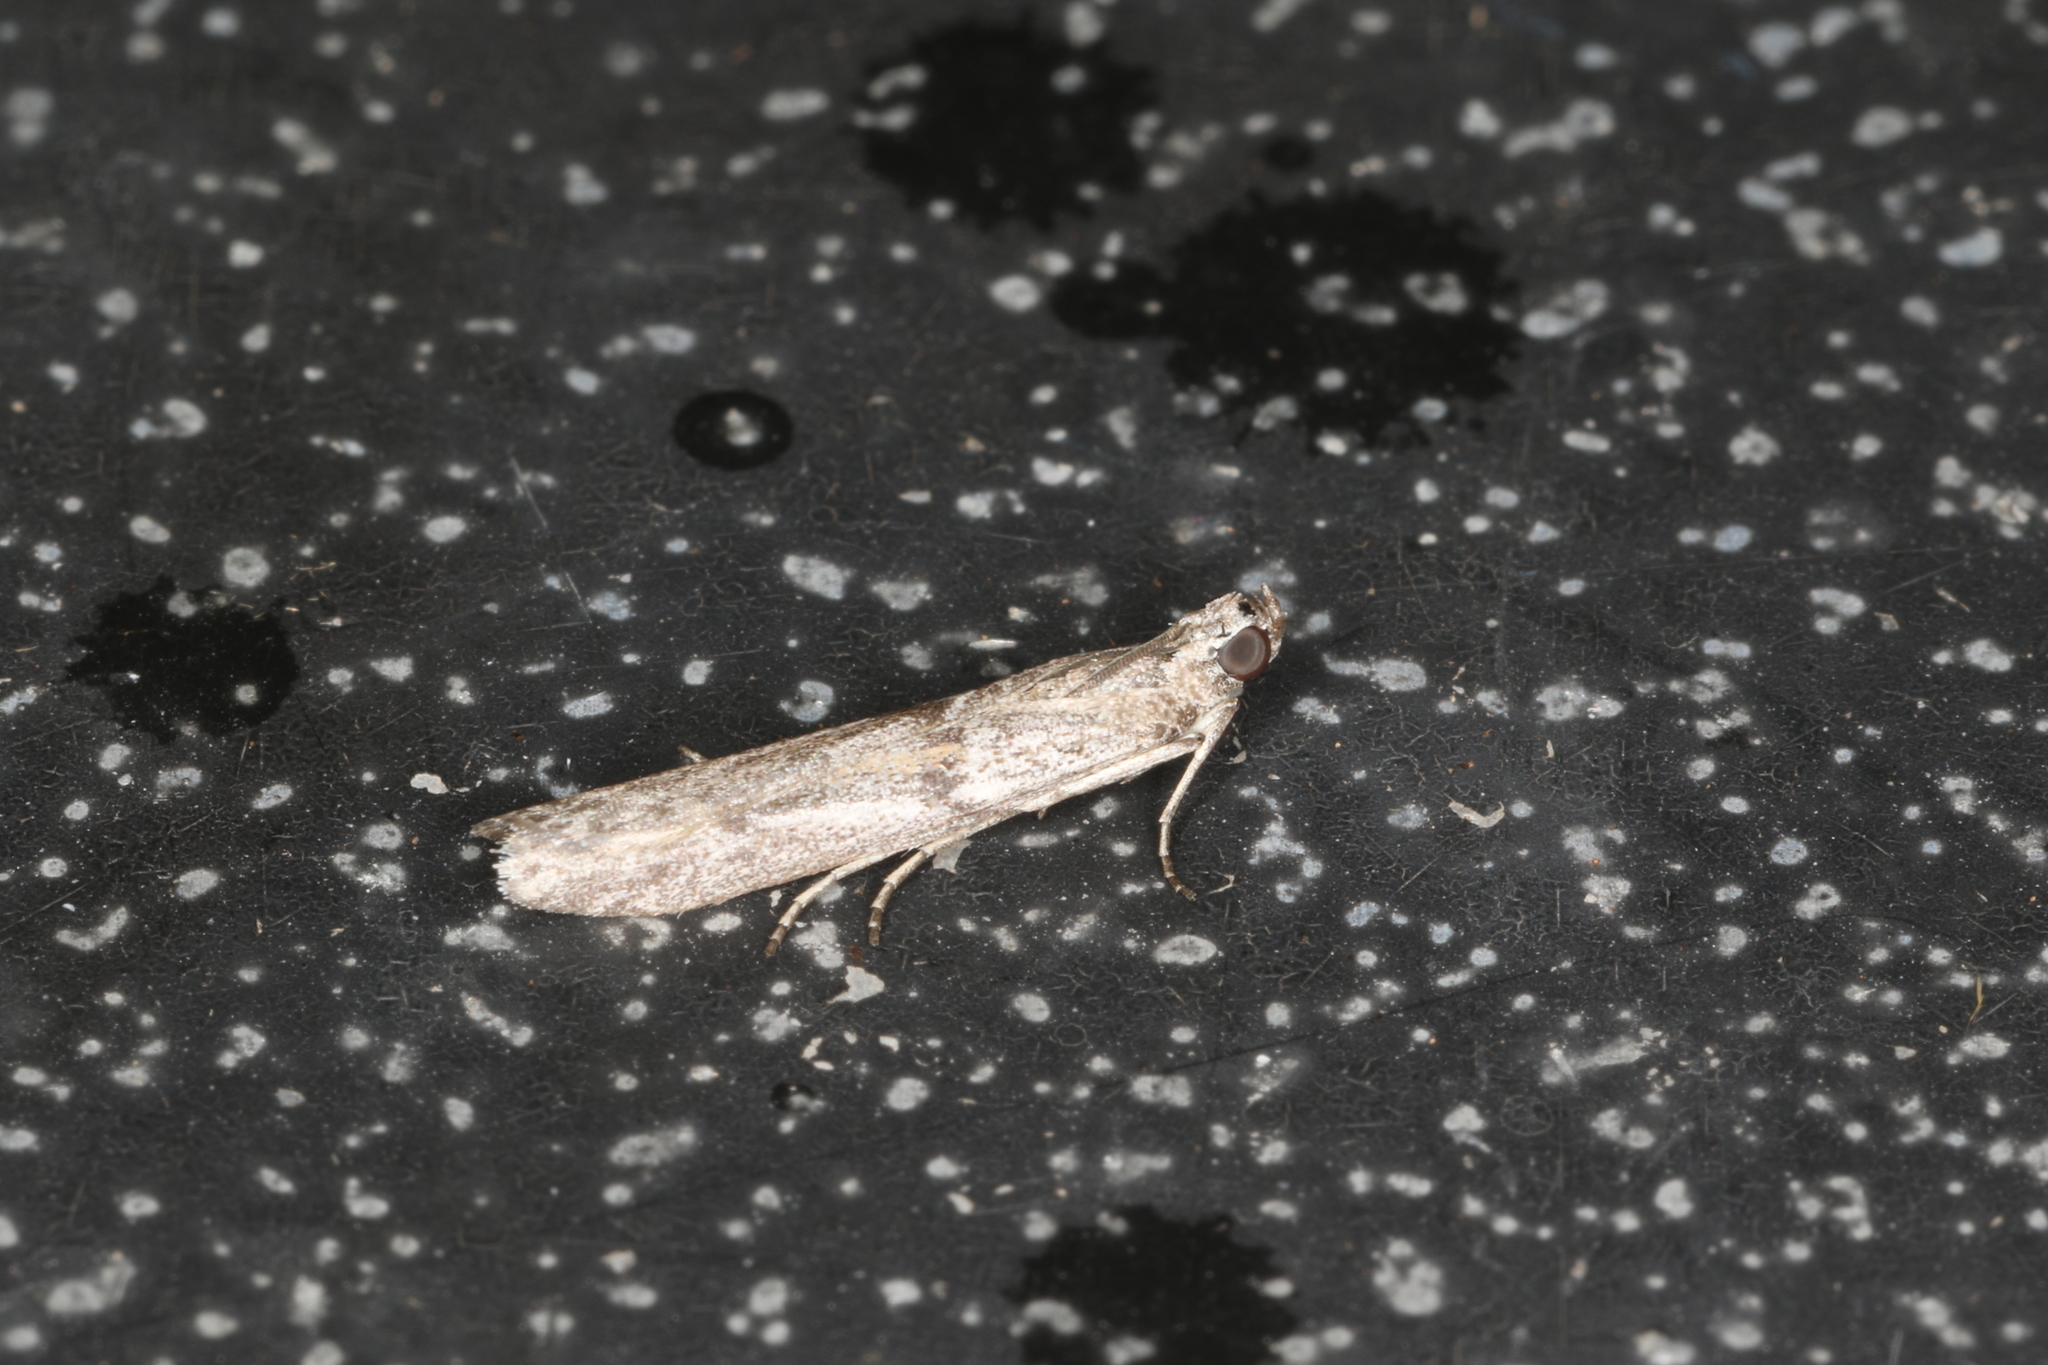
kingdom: Animalia
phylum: Arthropoda
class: Insecta
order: Lepidoptera
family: Pyralidae
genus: Homoeosoma
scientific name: Homoeosoma vagella
